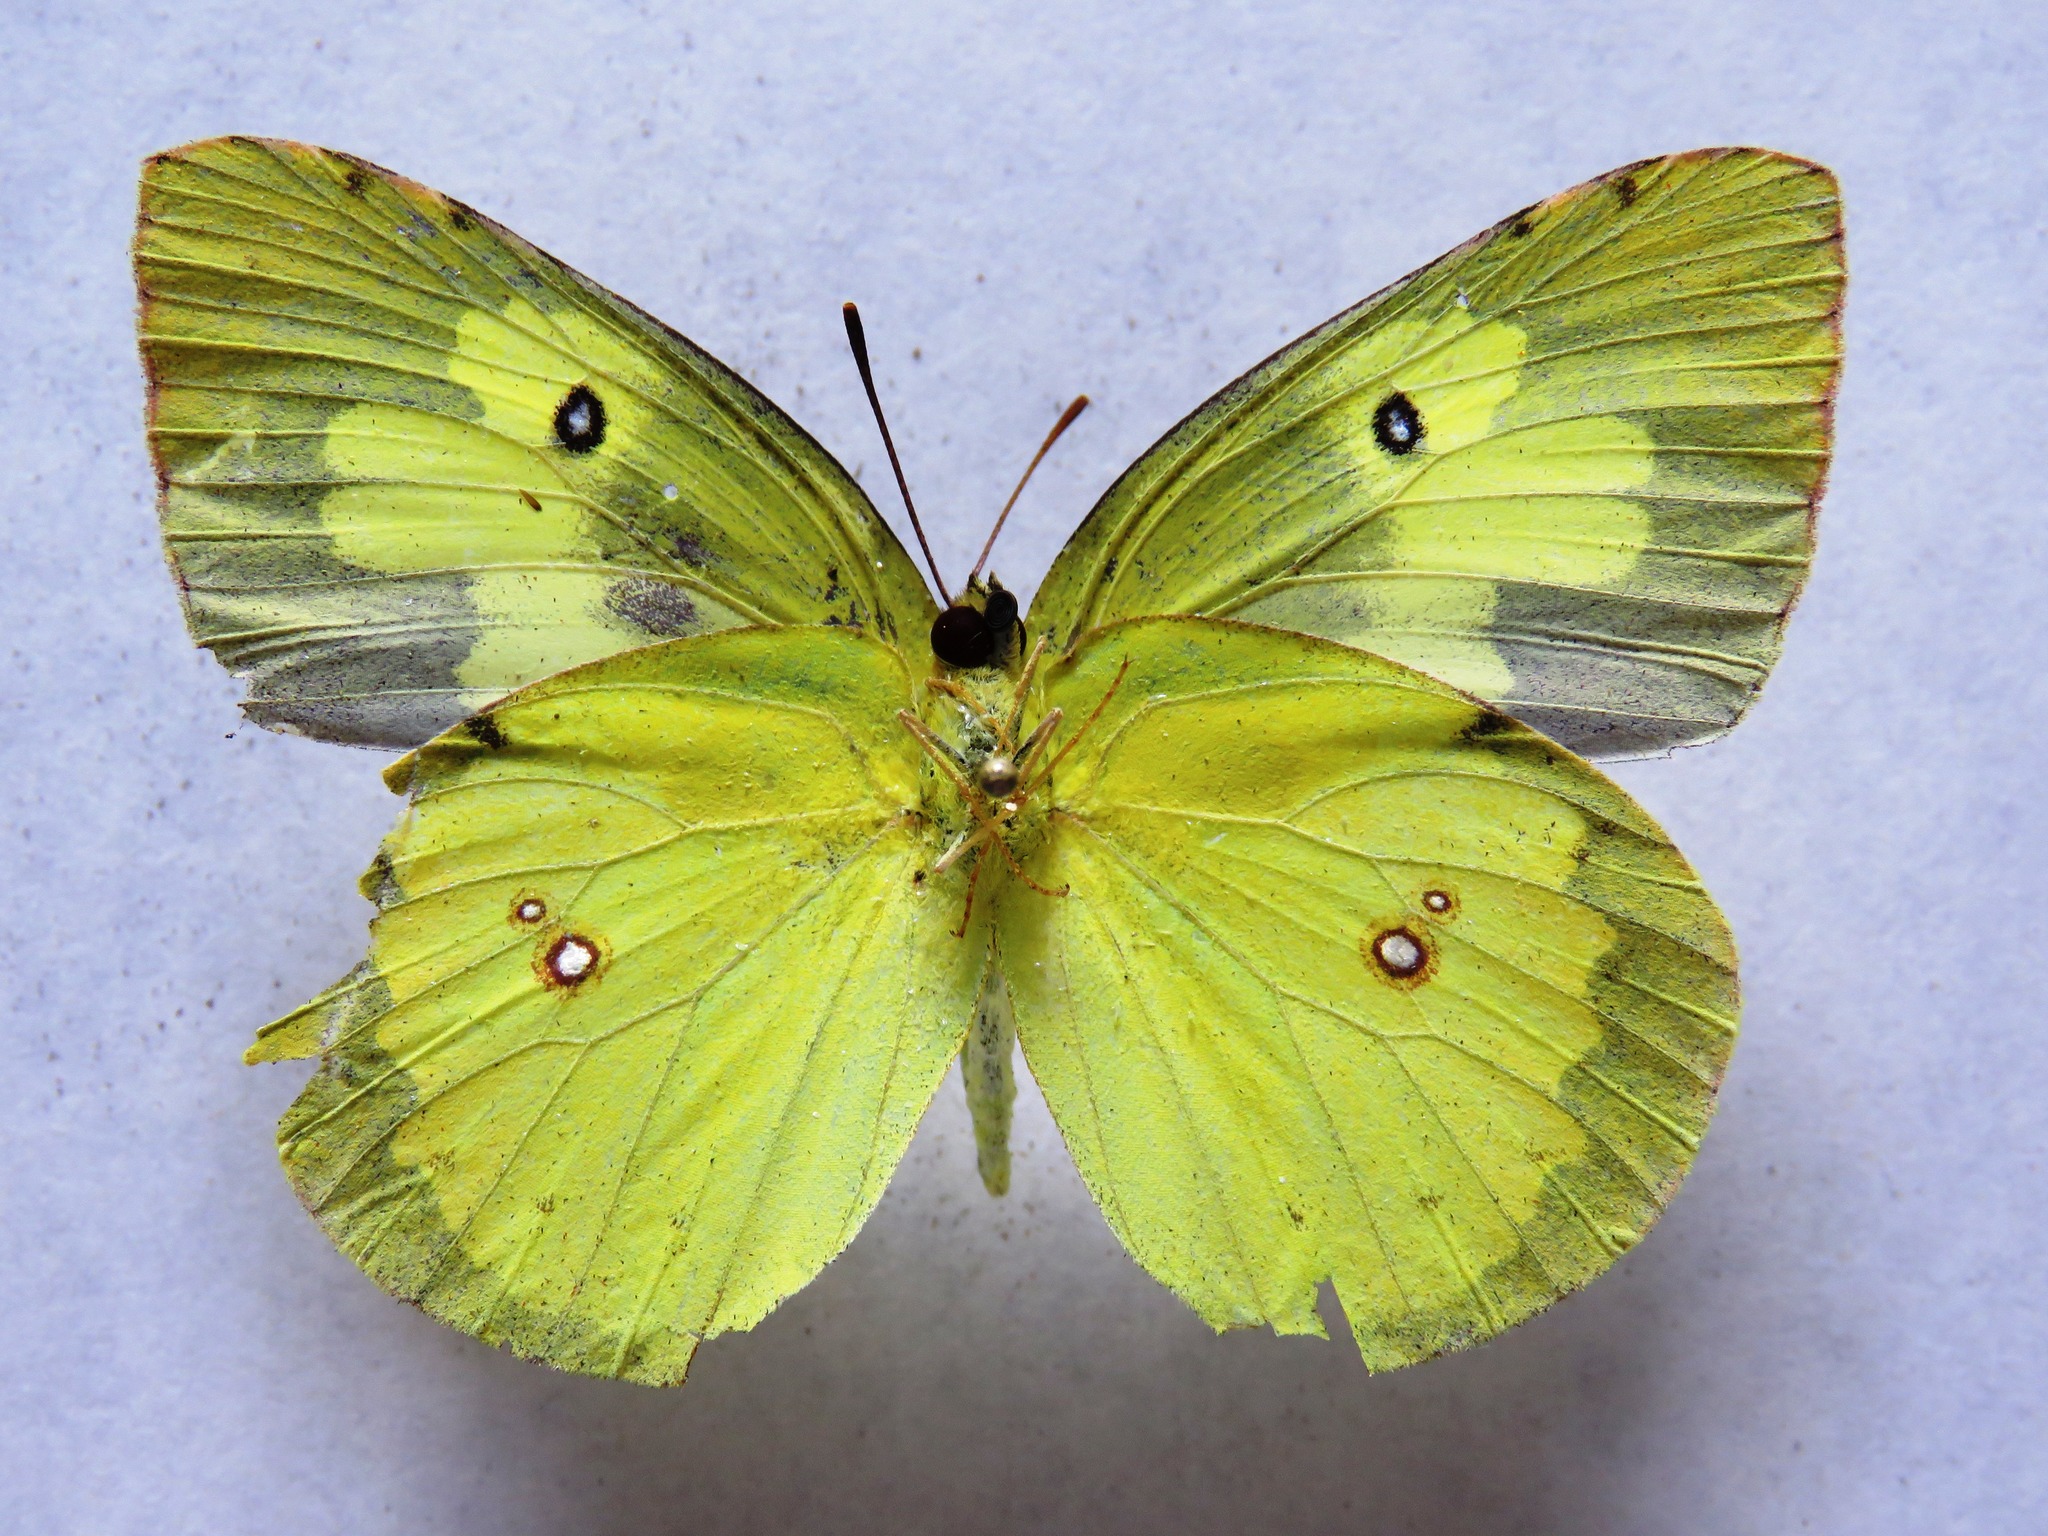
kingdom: Animalia
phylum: Arthropoda
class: Insecta
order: Lepidoptera
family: Pieridae
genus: Zerene
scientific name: Zerene cesonia
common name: Southern dogface
